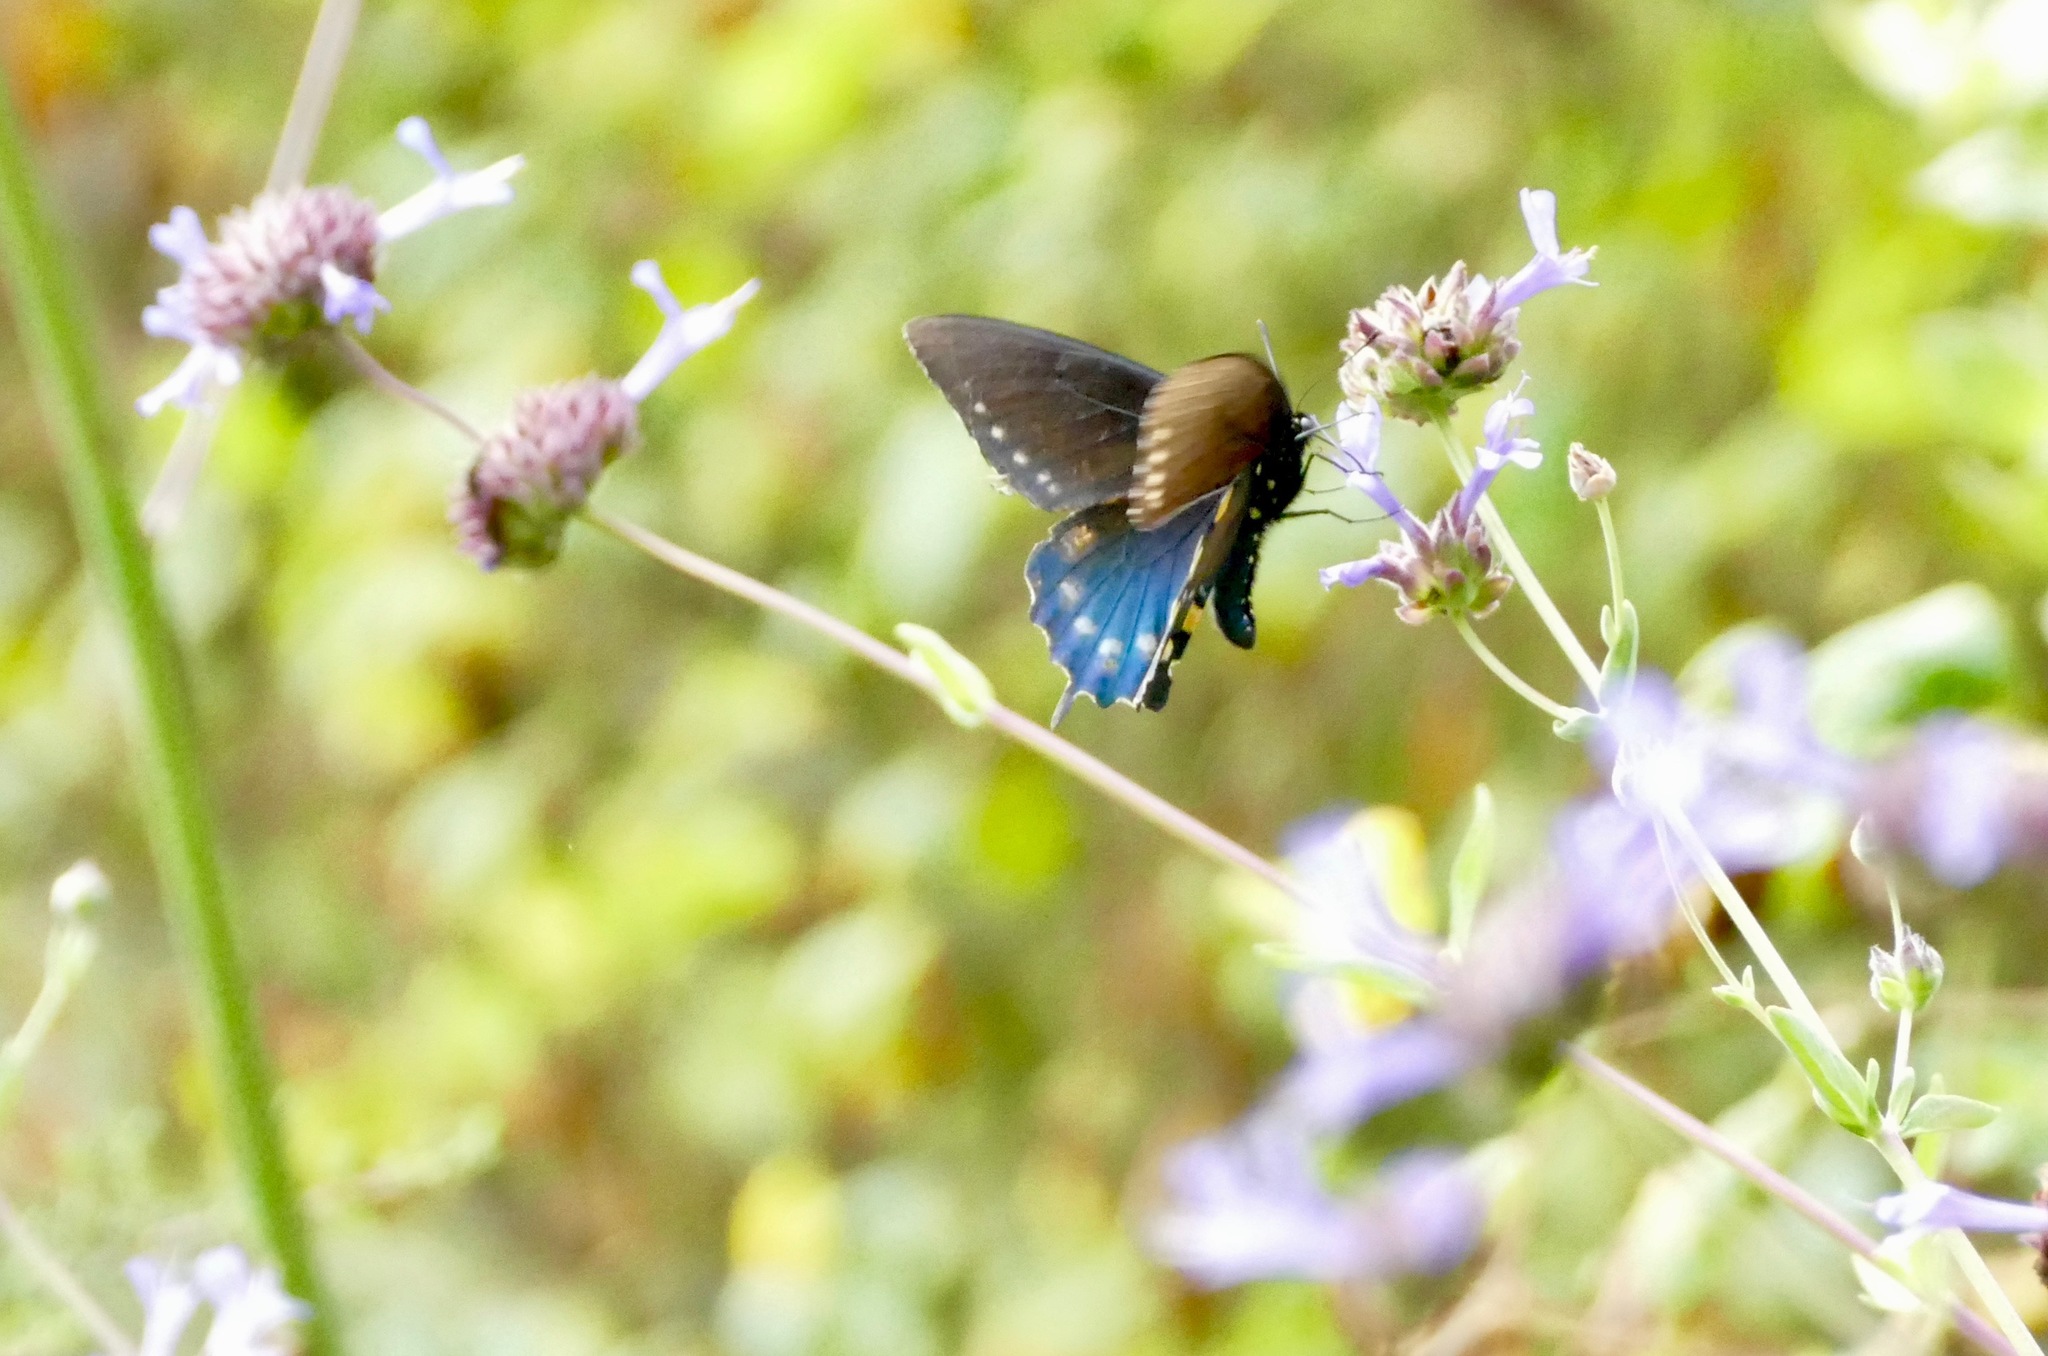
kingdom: Animalia
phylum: Arthropoda
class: Insecta
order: Lepidoptera
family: Papilionidae
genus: Battus
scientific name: Battus philenor
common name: Pipevine swallowtail
